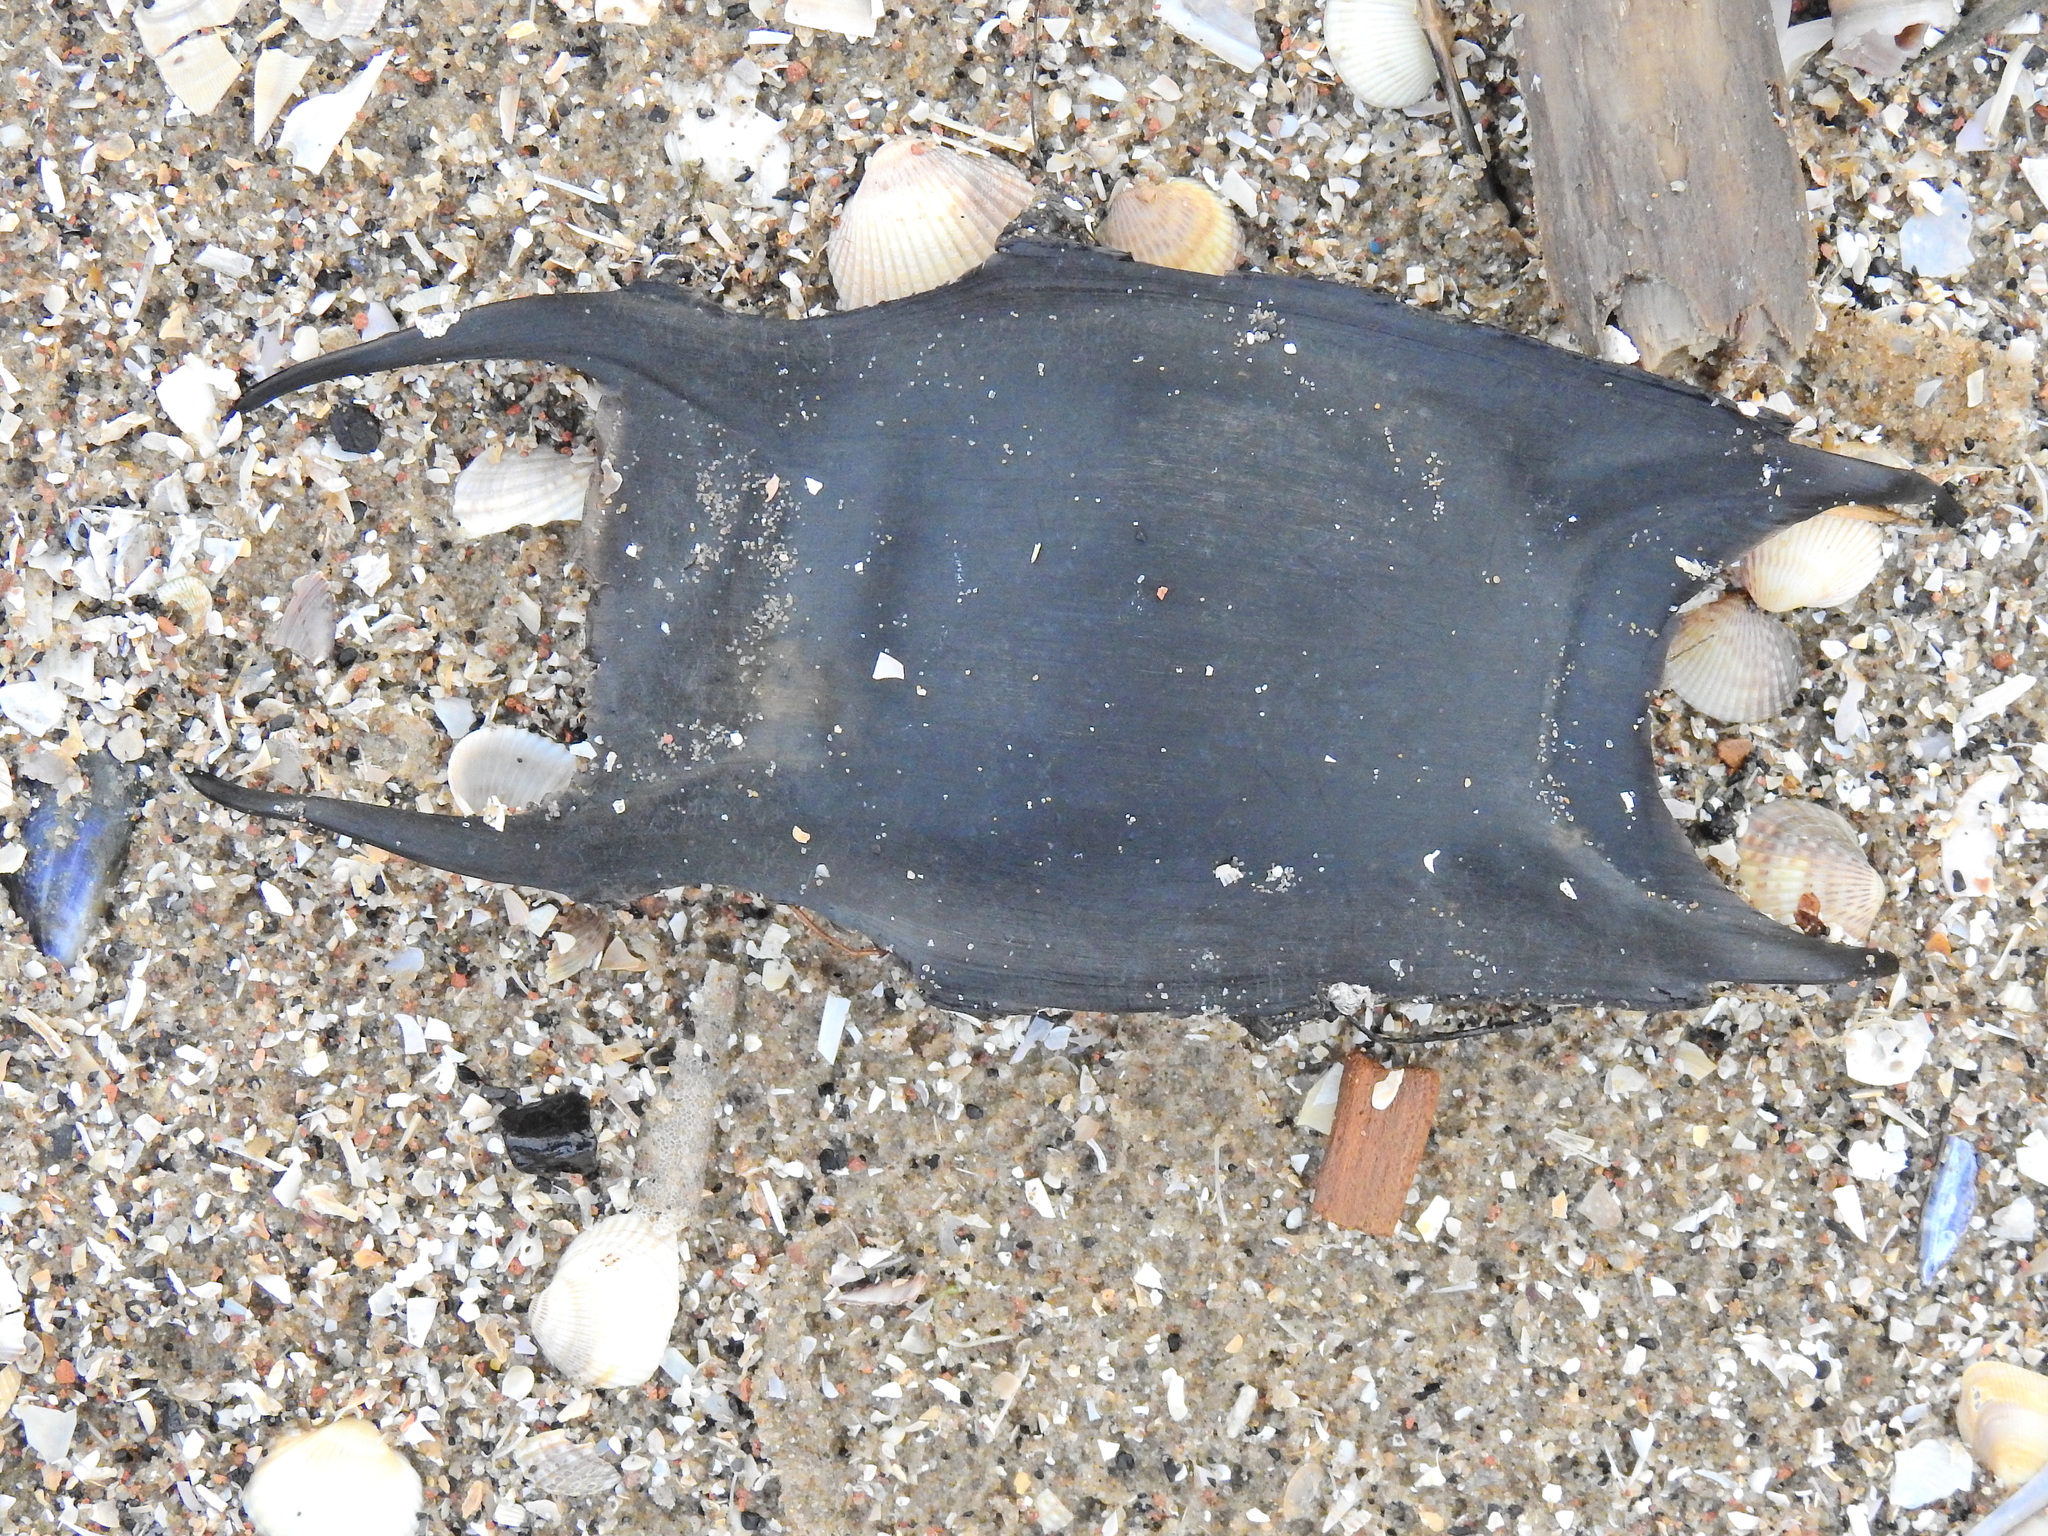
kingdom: Animalia
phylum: Chordata
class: Elasmobranchii
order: Rajiformes
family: Rajidae
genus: Raja
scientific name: Raja clavata
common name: Thornback ray
